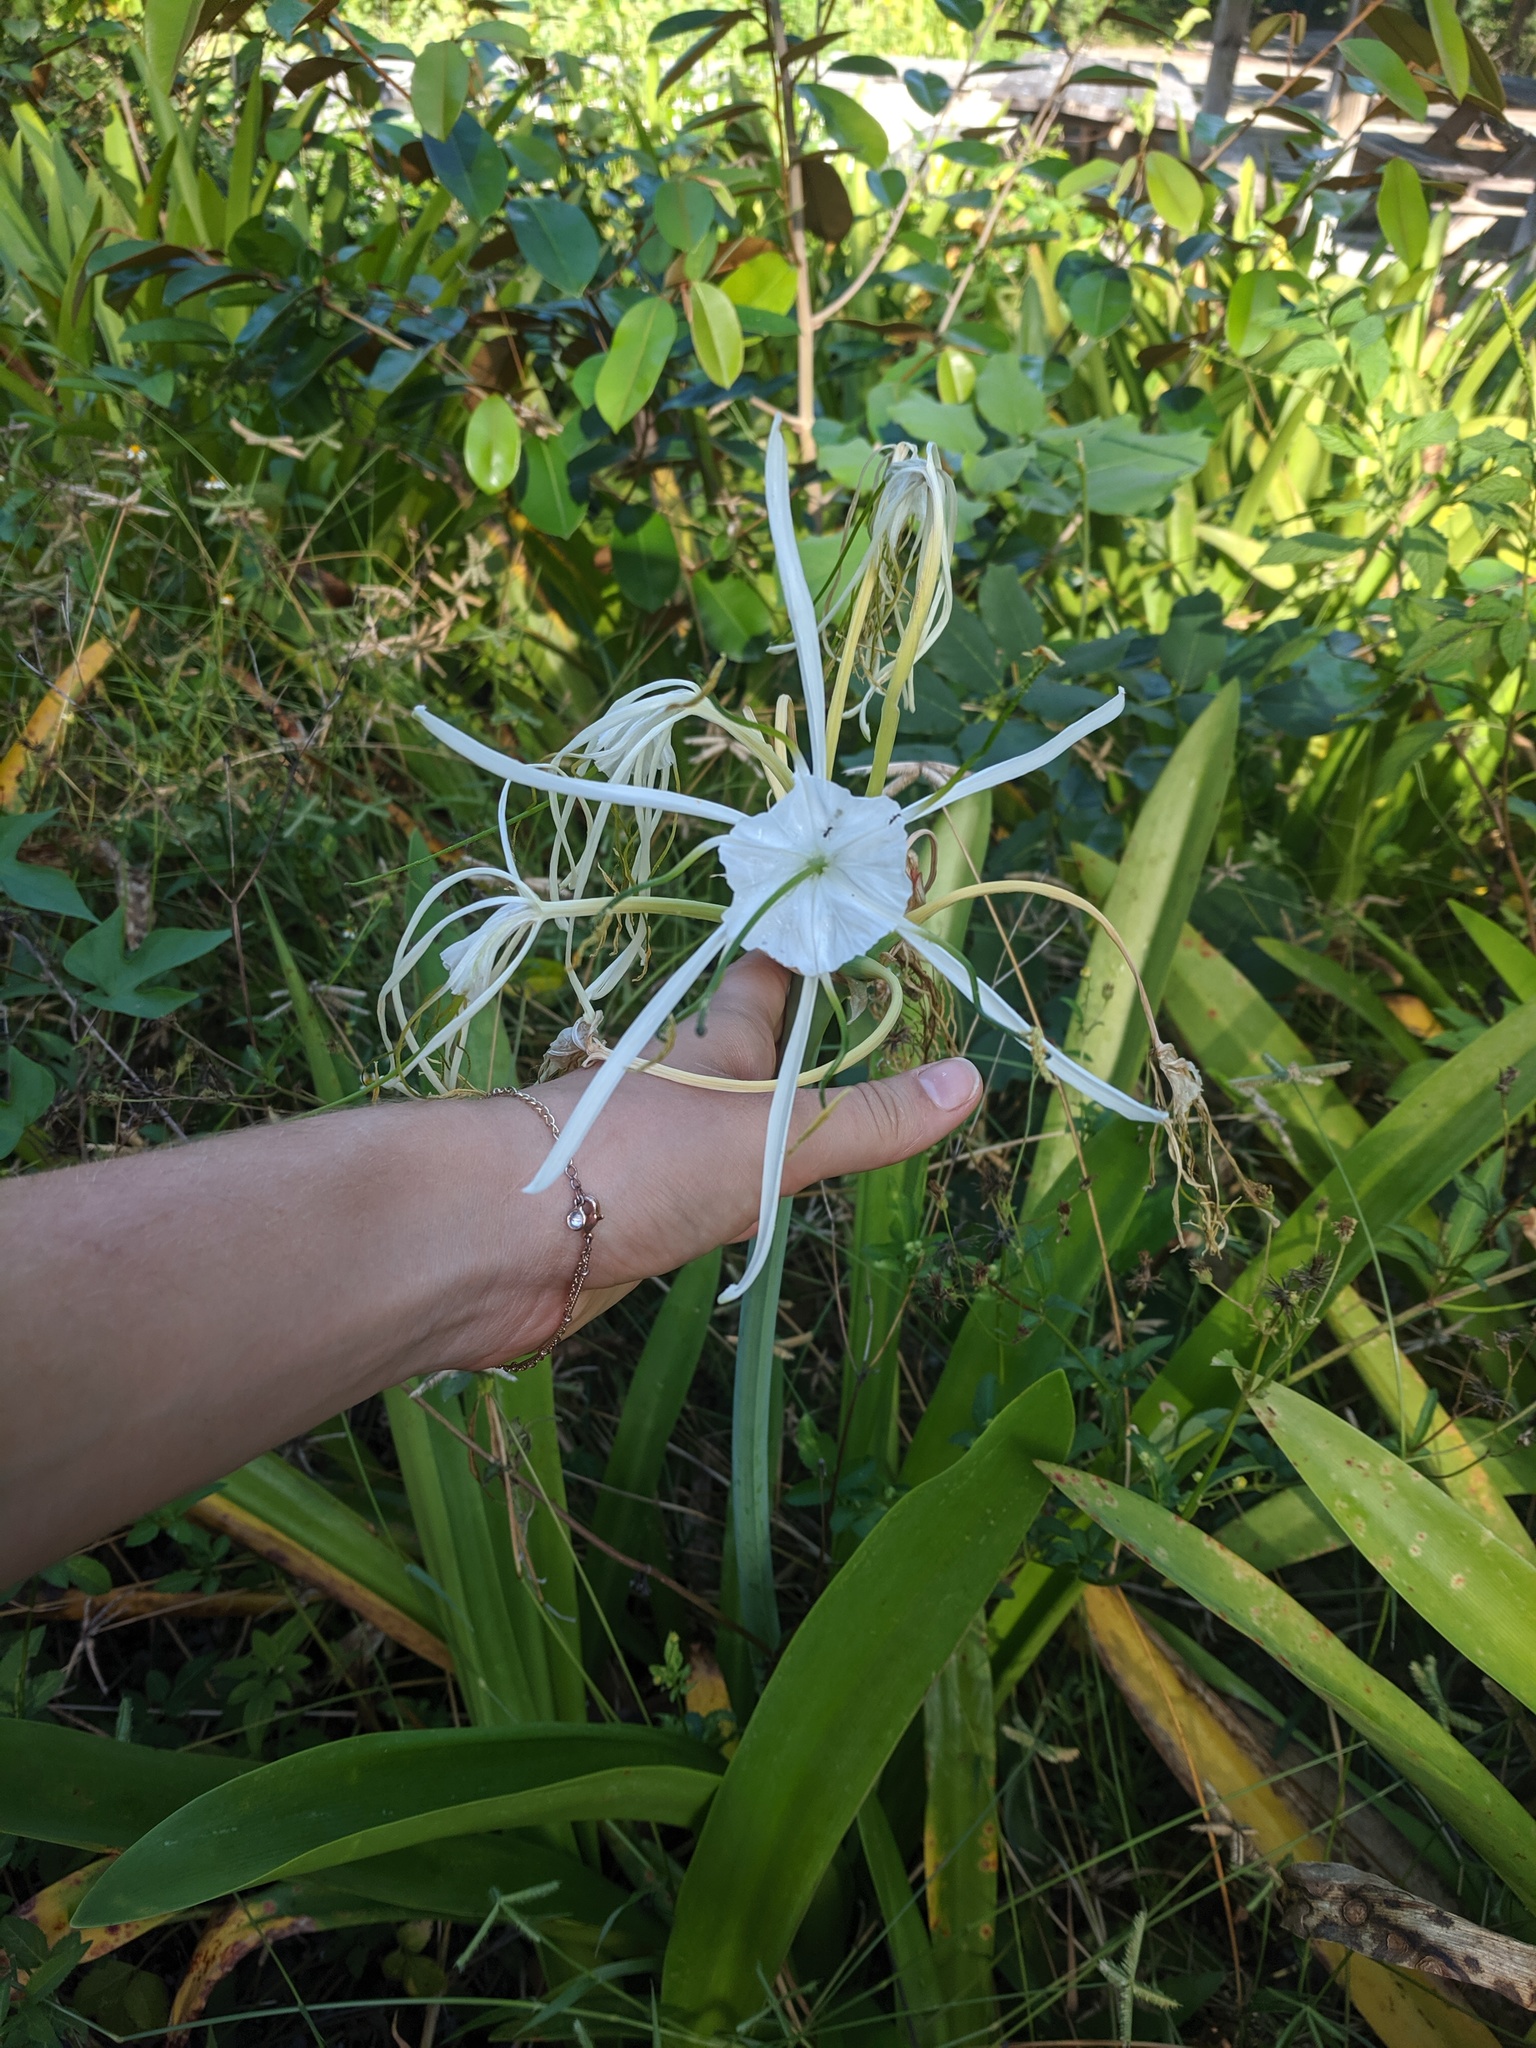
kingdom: Plantae
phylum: Tracheophyta
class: Liliopsida
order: Asparagales
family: Amaryllidaceae
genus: Hymenocallis
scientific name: Hymenocallis latifolia
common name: Cayman islands spider-lily
